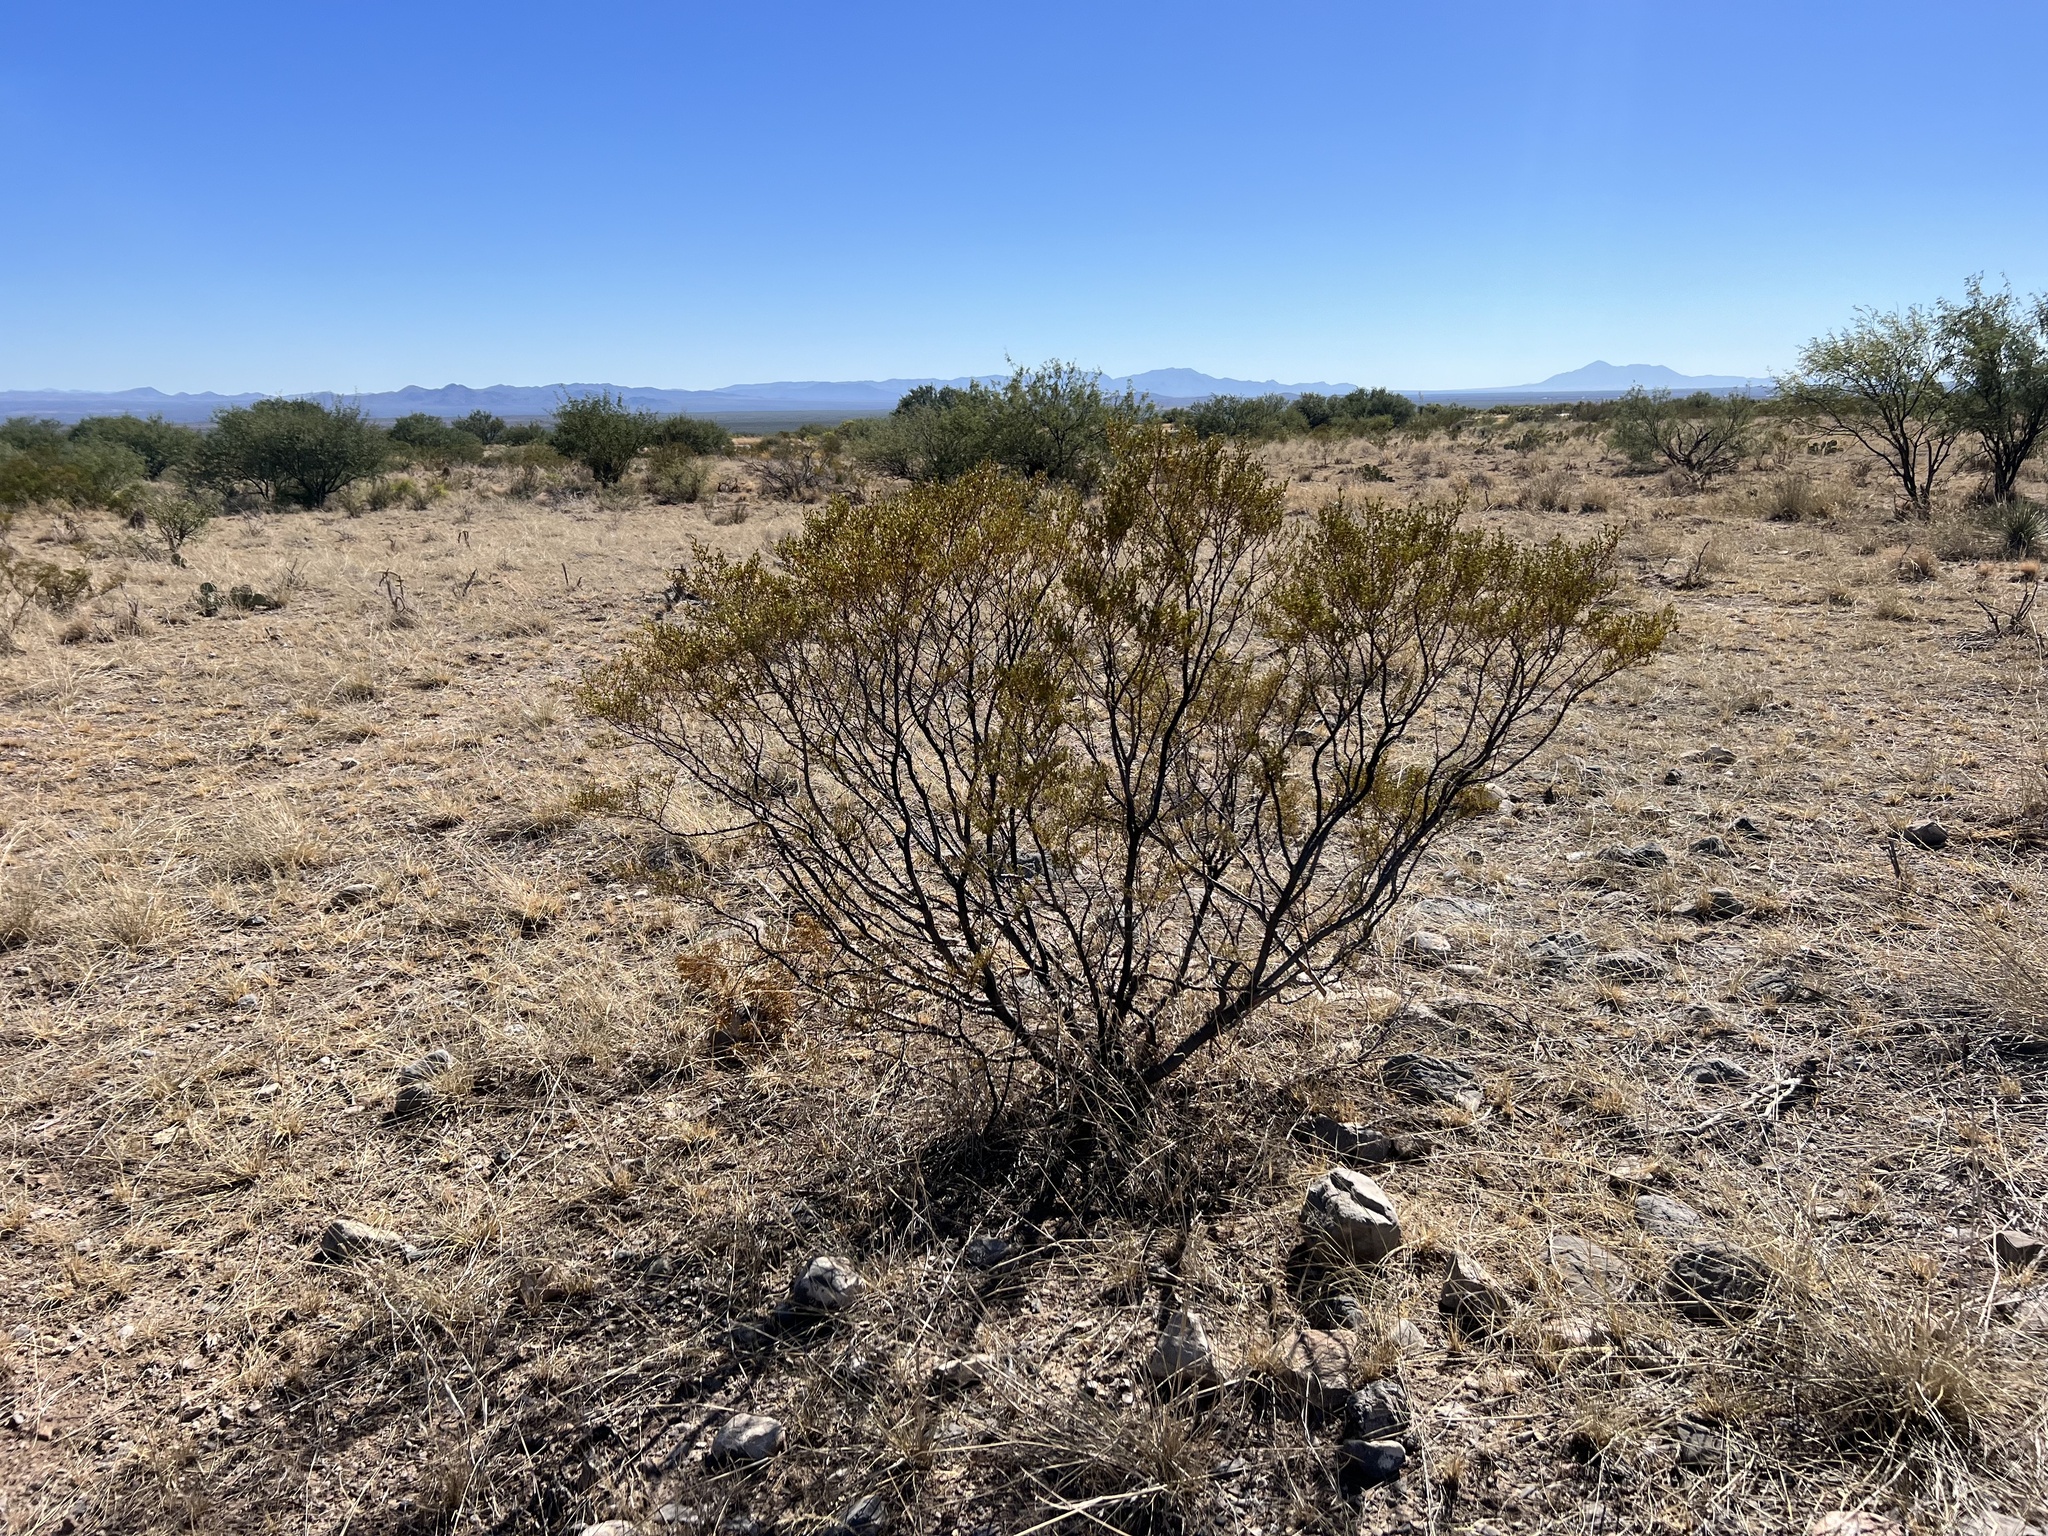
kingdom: Plantae
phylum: Tracheophyta
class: Magnoliopsida
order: Zygophyllales
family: Zygophyllaceae
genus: Larrea
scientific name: Larrea tridentata
